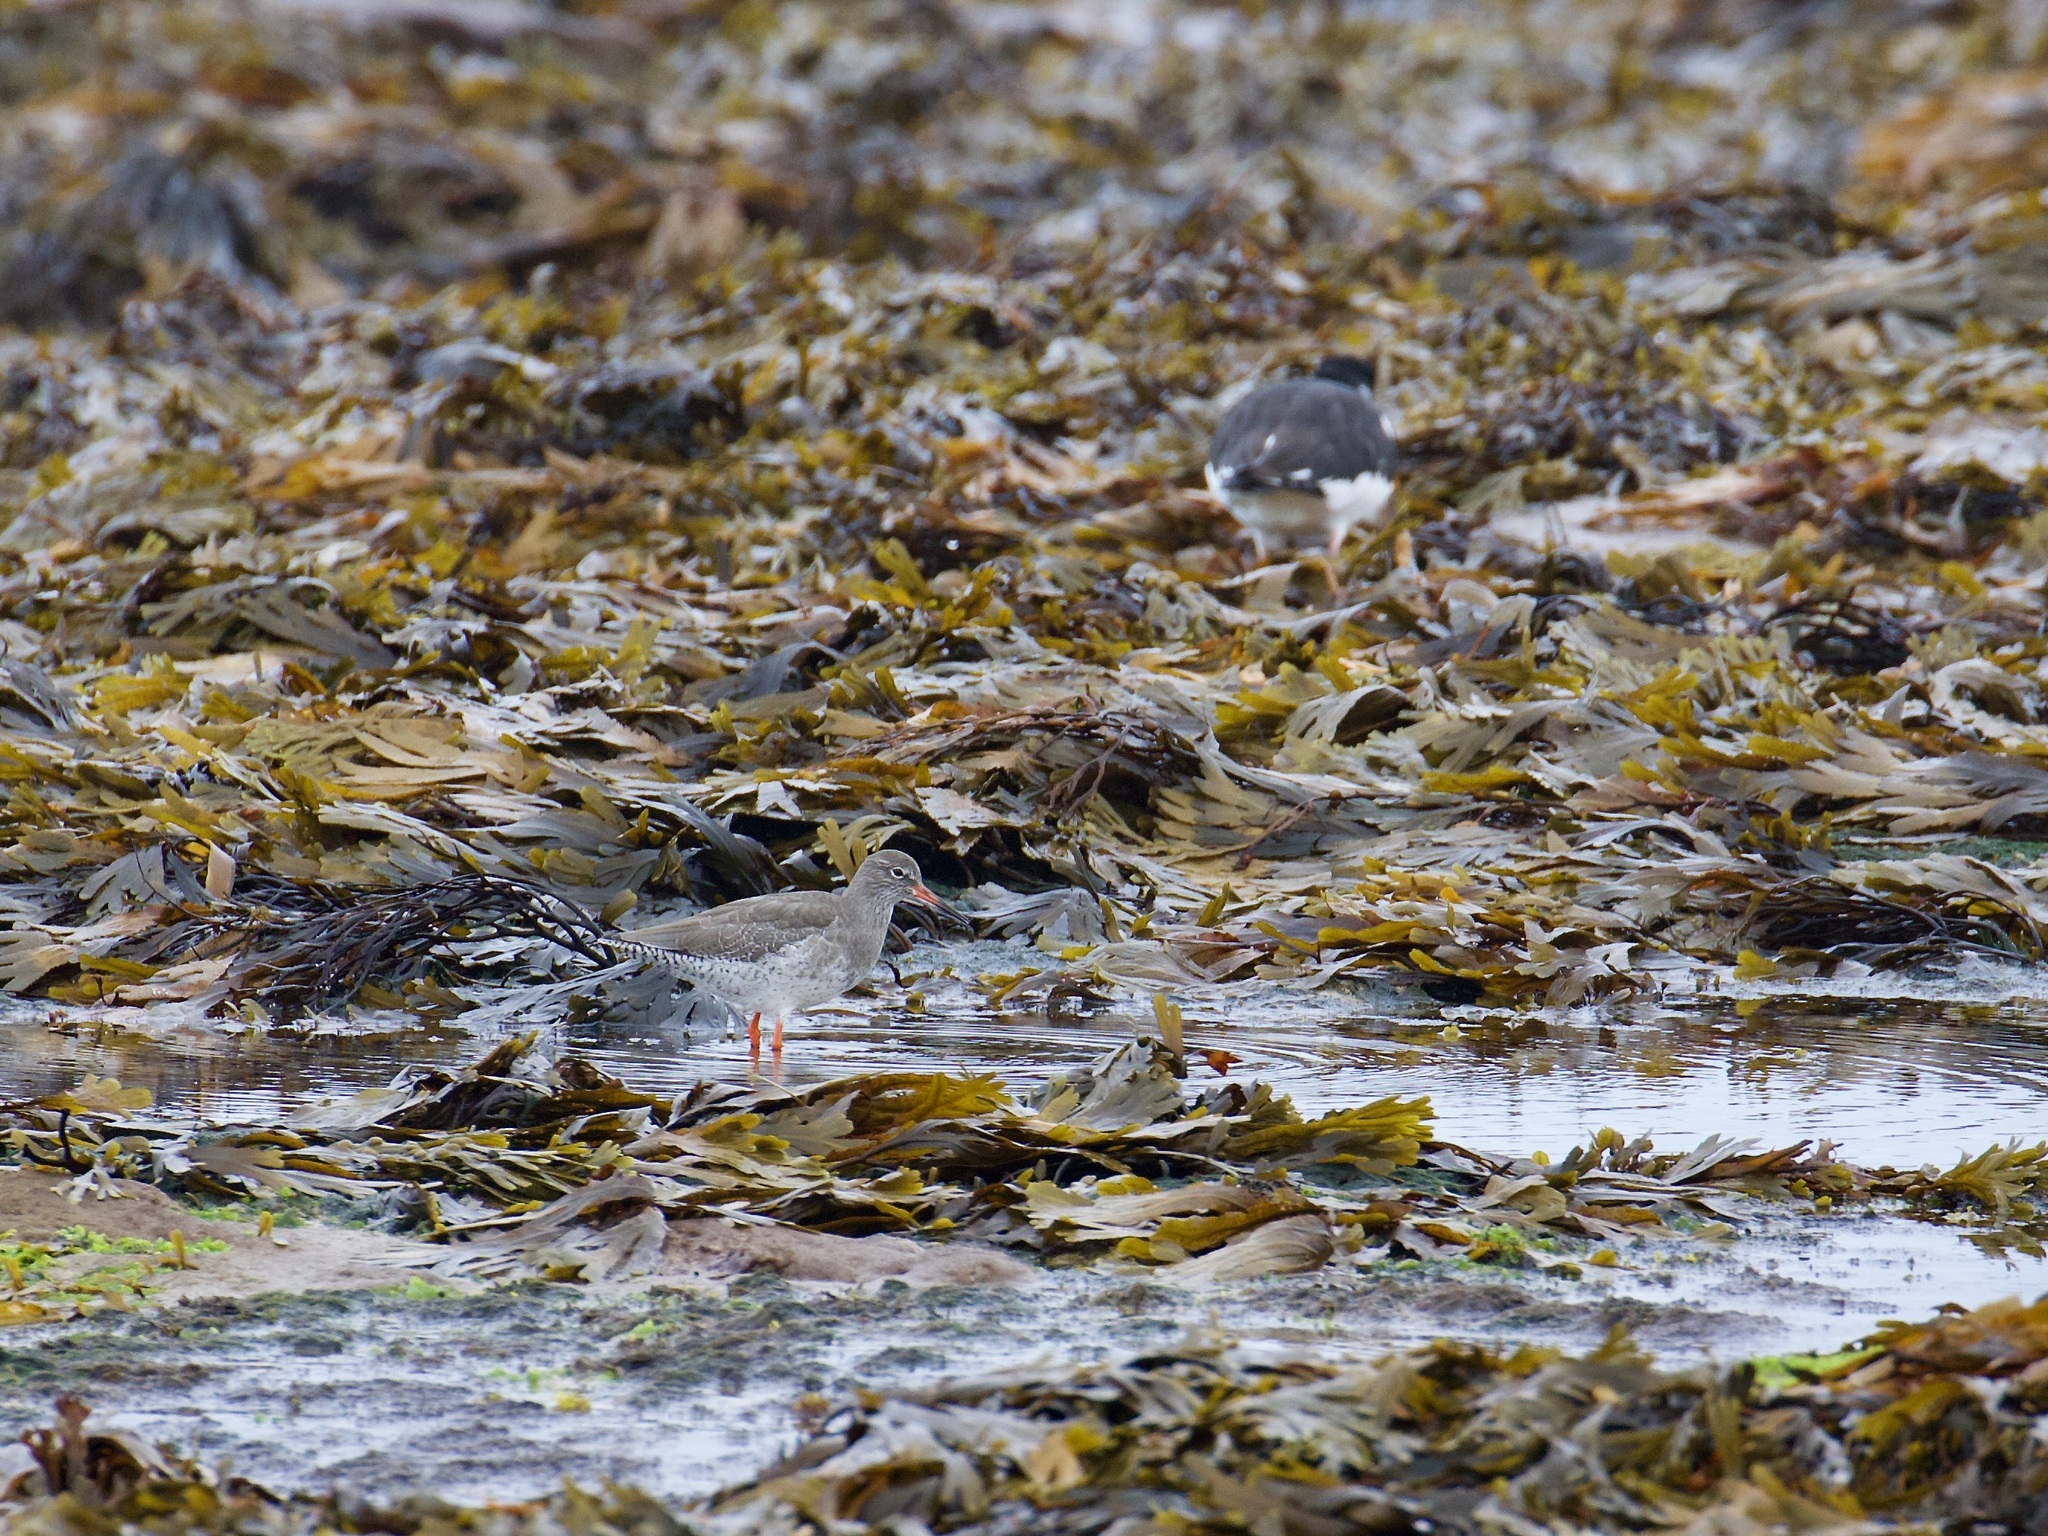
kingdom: Animalia
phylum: Chordata
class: Aves
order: Charadriiformes
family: Scolopacidae
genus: Tringa
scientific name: Tringa totanus
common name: Common redshank
